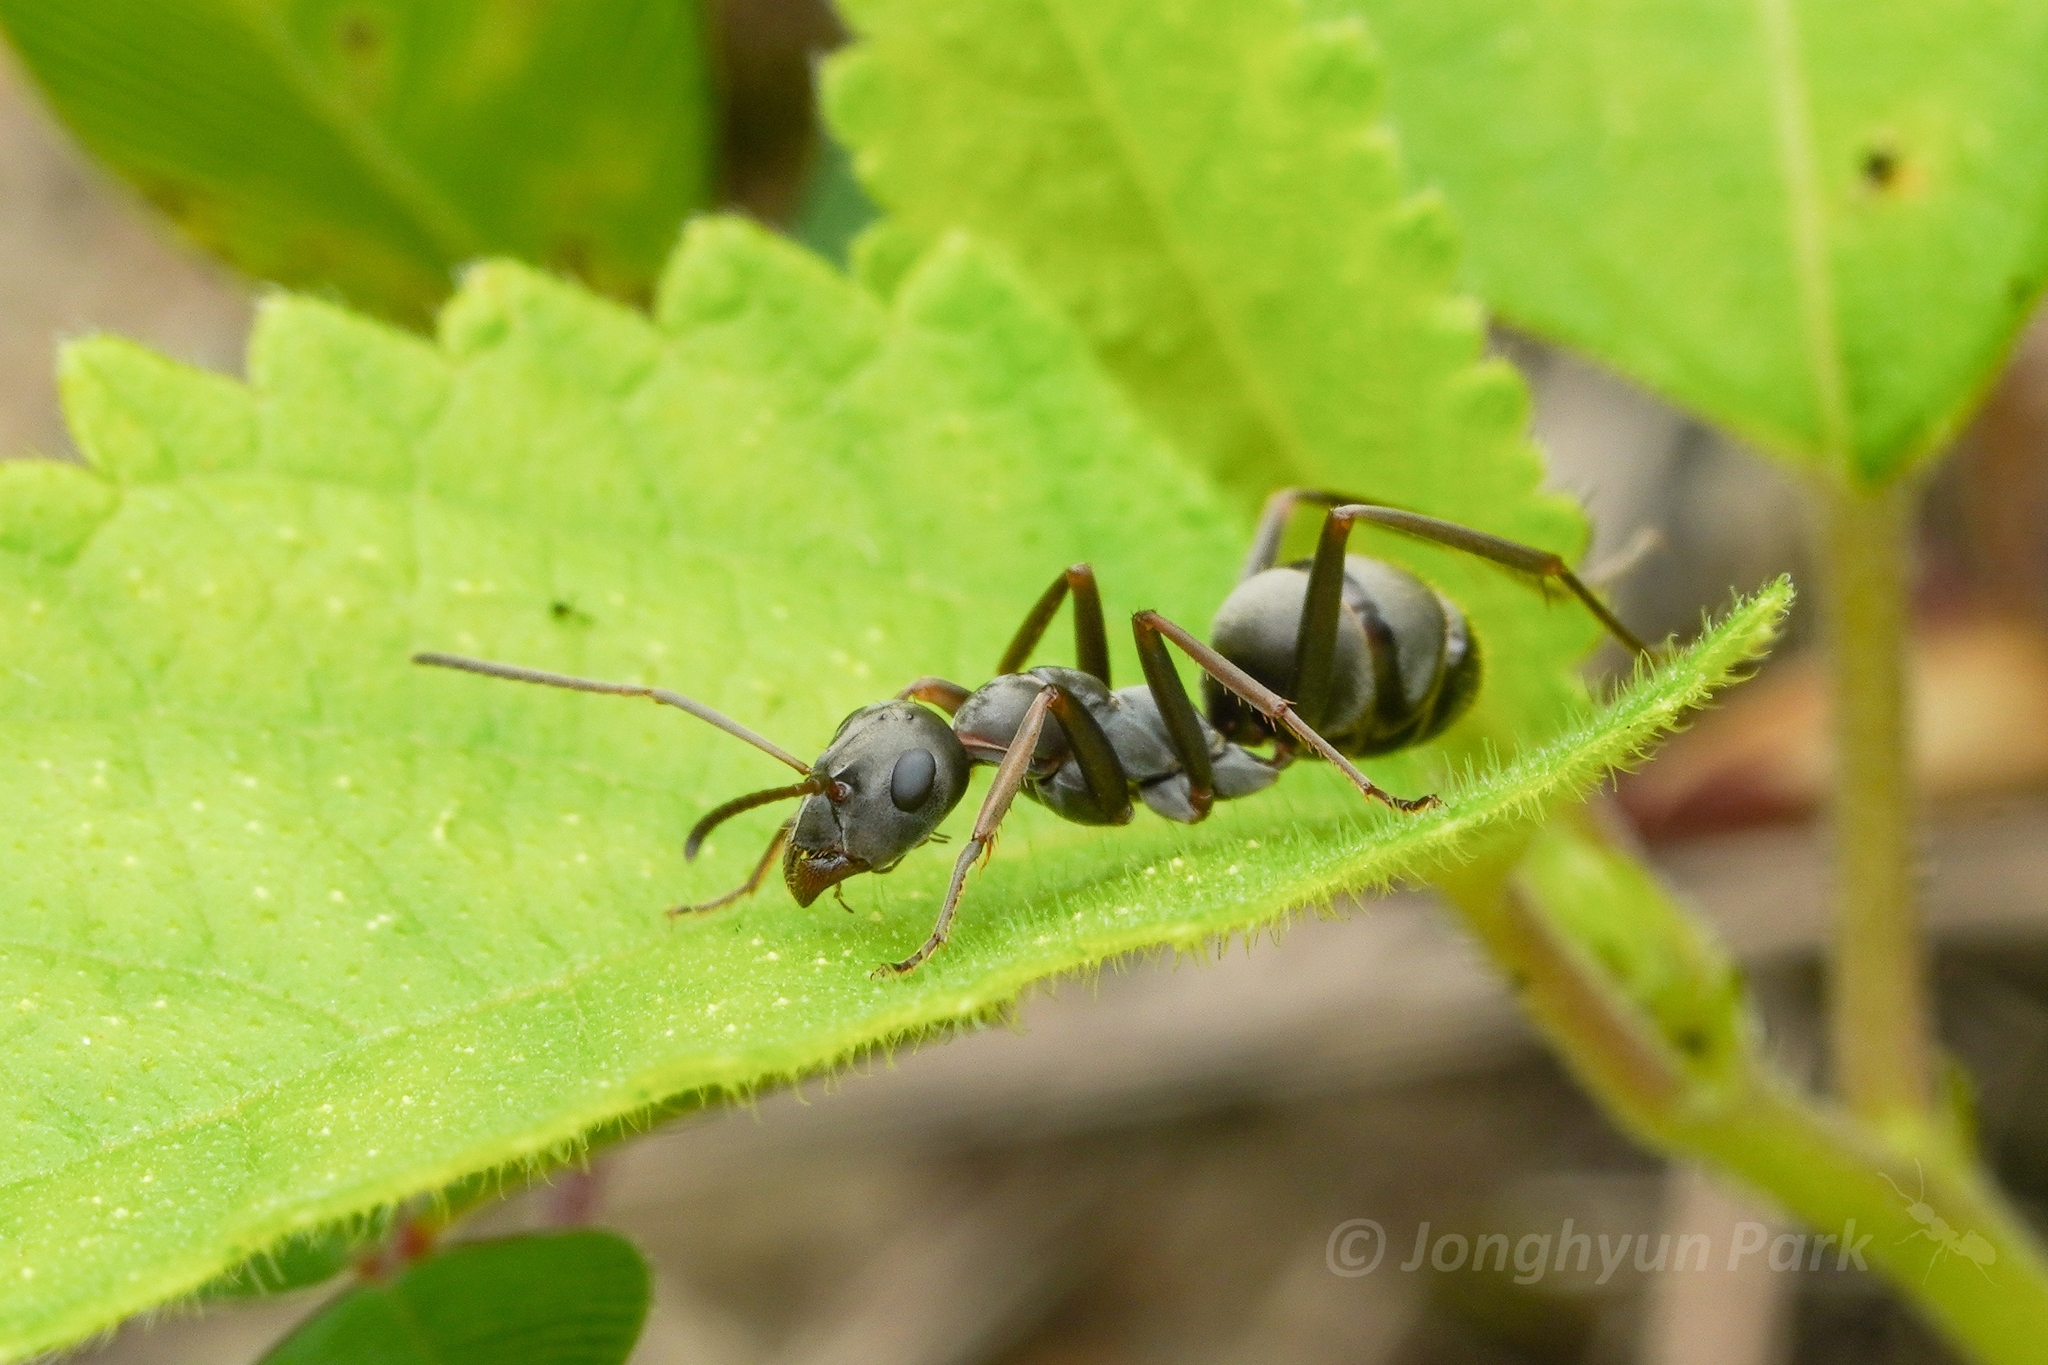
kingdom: Animalia
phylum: Arthropoda
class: Insecta
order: Hymenoptera
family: Formicidae
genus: Formica
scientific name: Formica japonica
